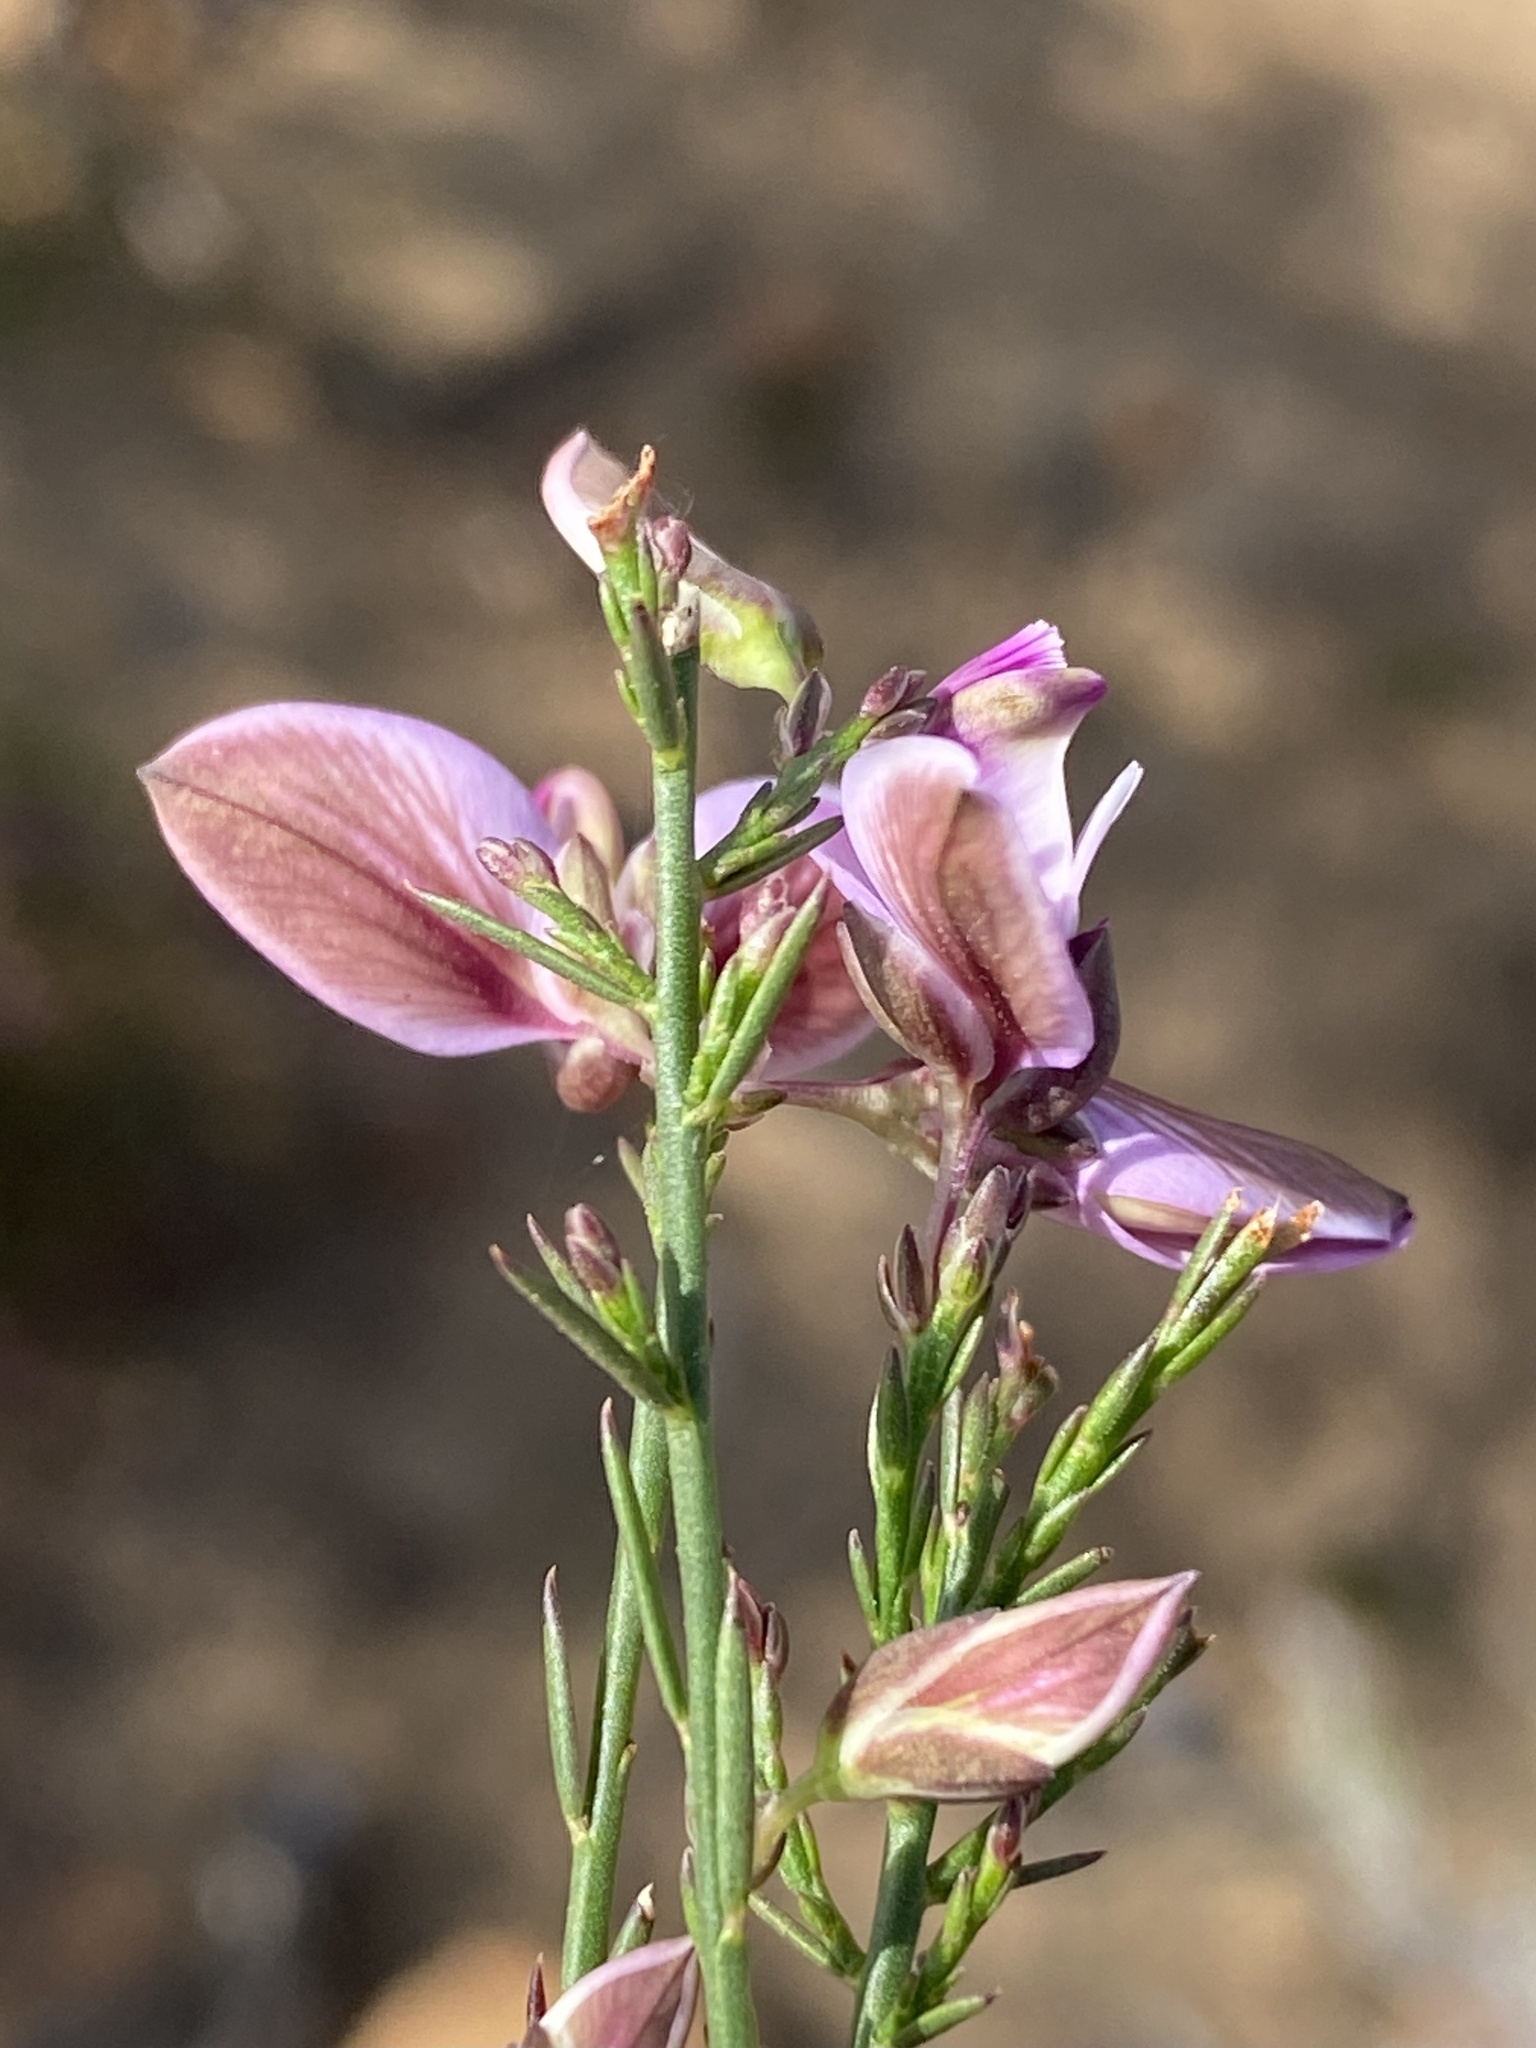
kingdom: Plantae
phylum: Tracheophyta
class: Magnoliopsida
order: Fabales
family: Polygalaceae
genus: Polygala
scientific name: Polygala microlopha
